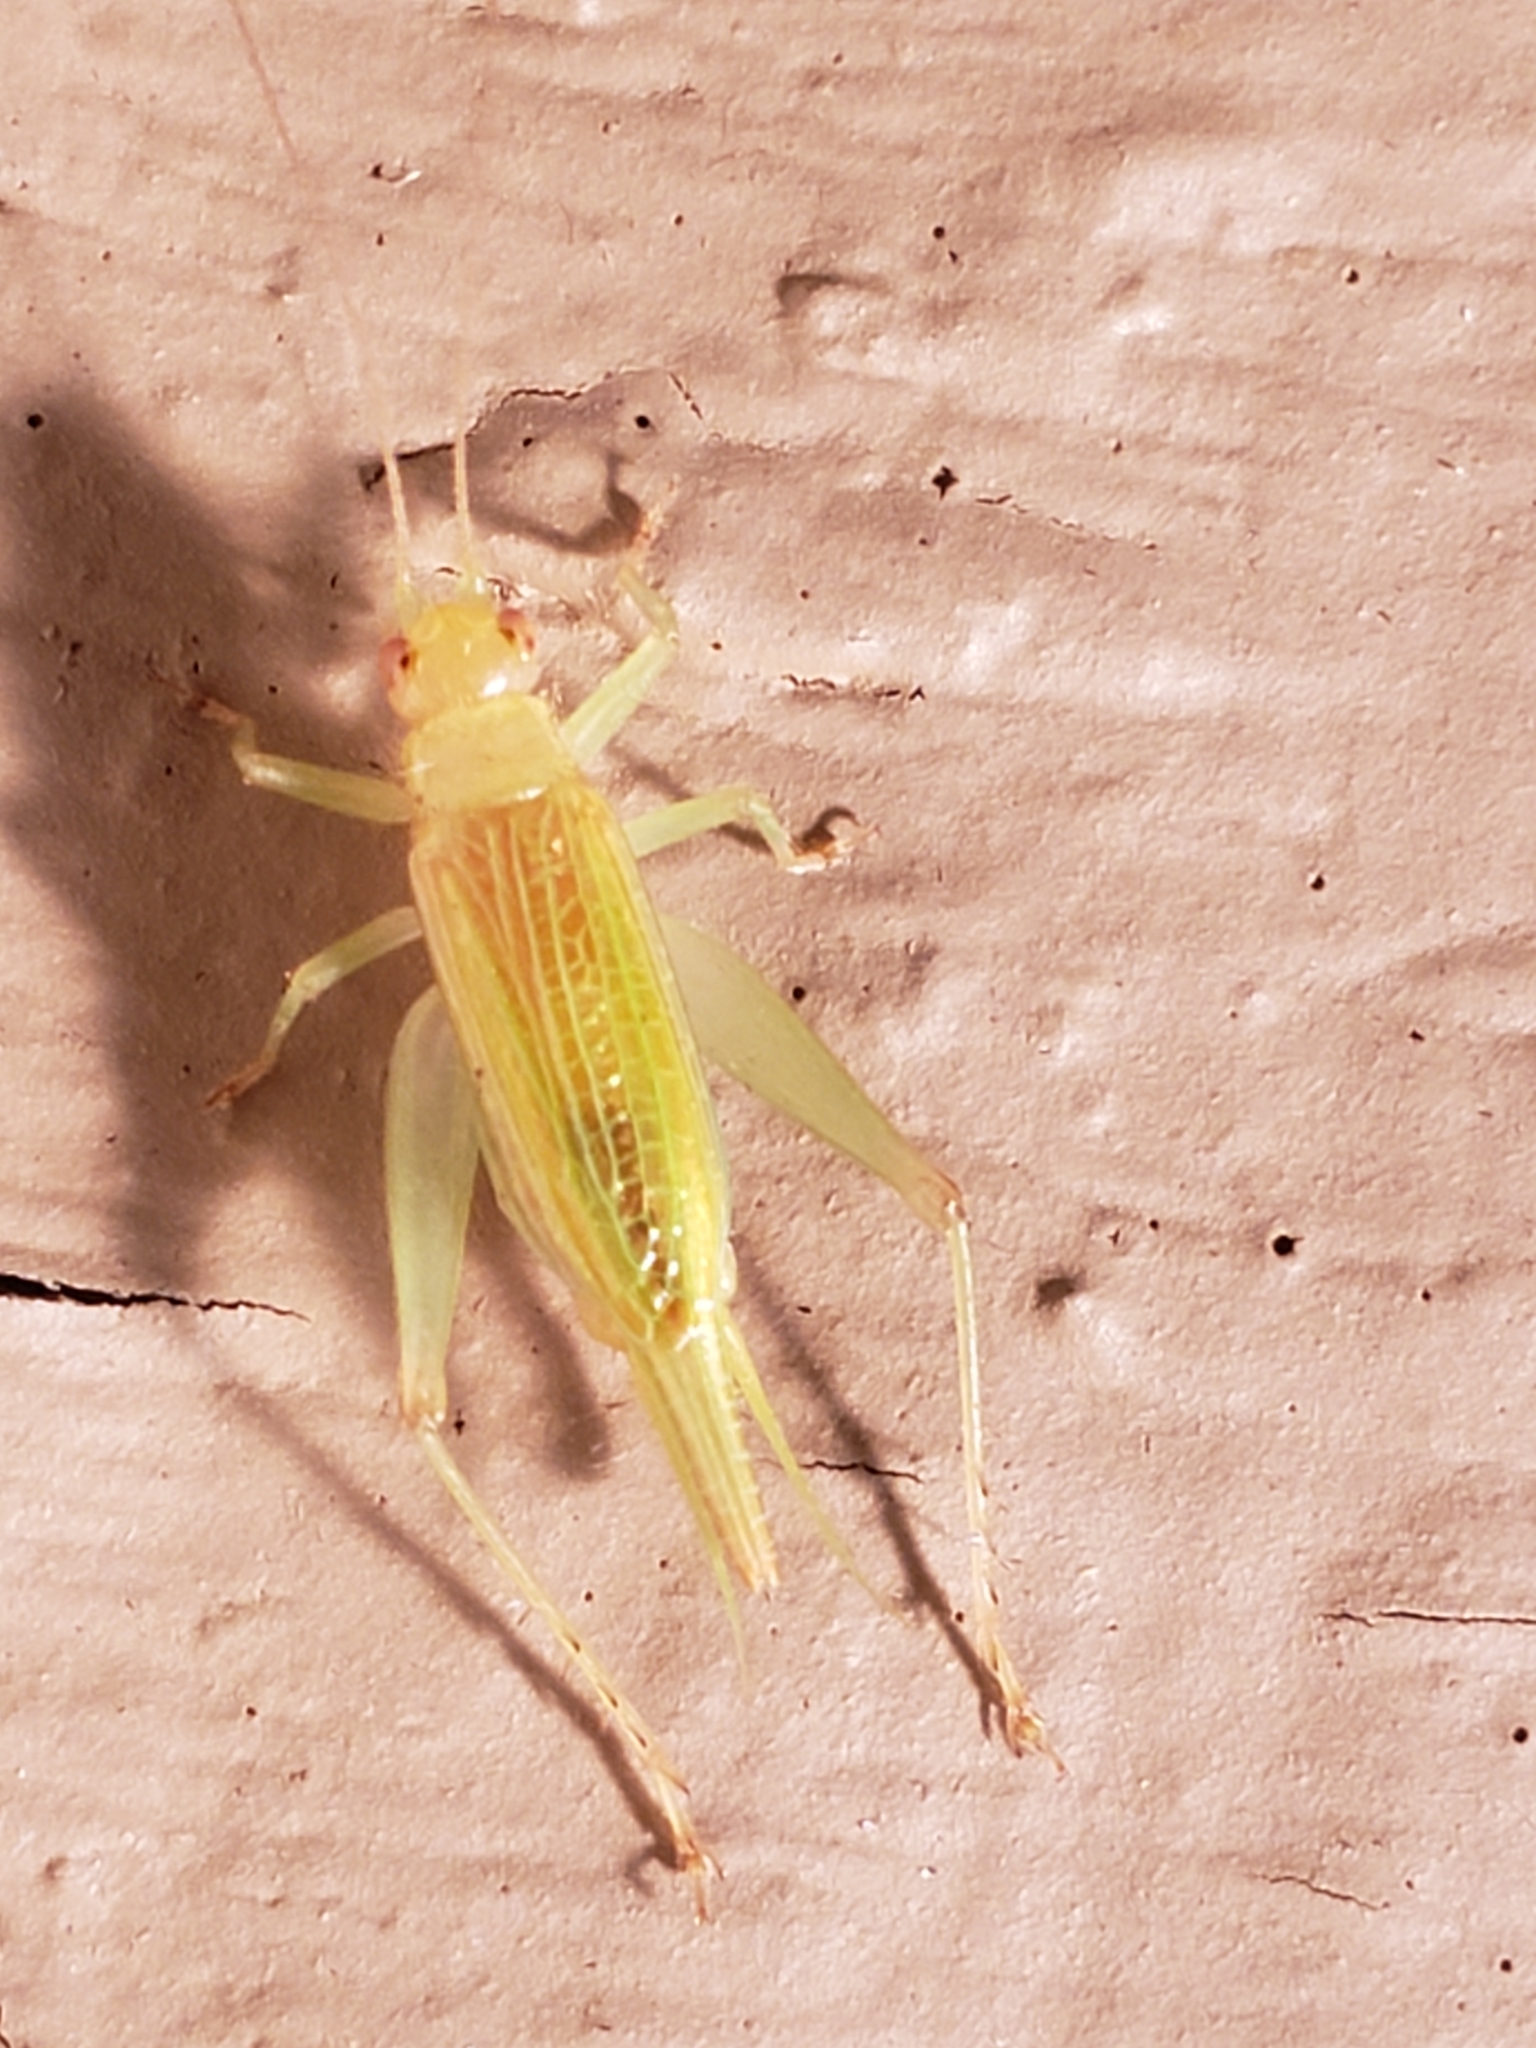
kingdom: Animalia
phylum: Arthropoda
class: Insecta
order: Orthoptera
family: Trigonidiidae
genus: Cyrtoxipha
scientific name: Cyrtoxipha columbiana
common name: Columbian trig
